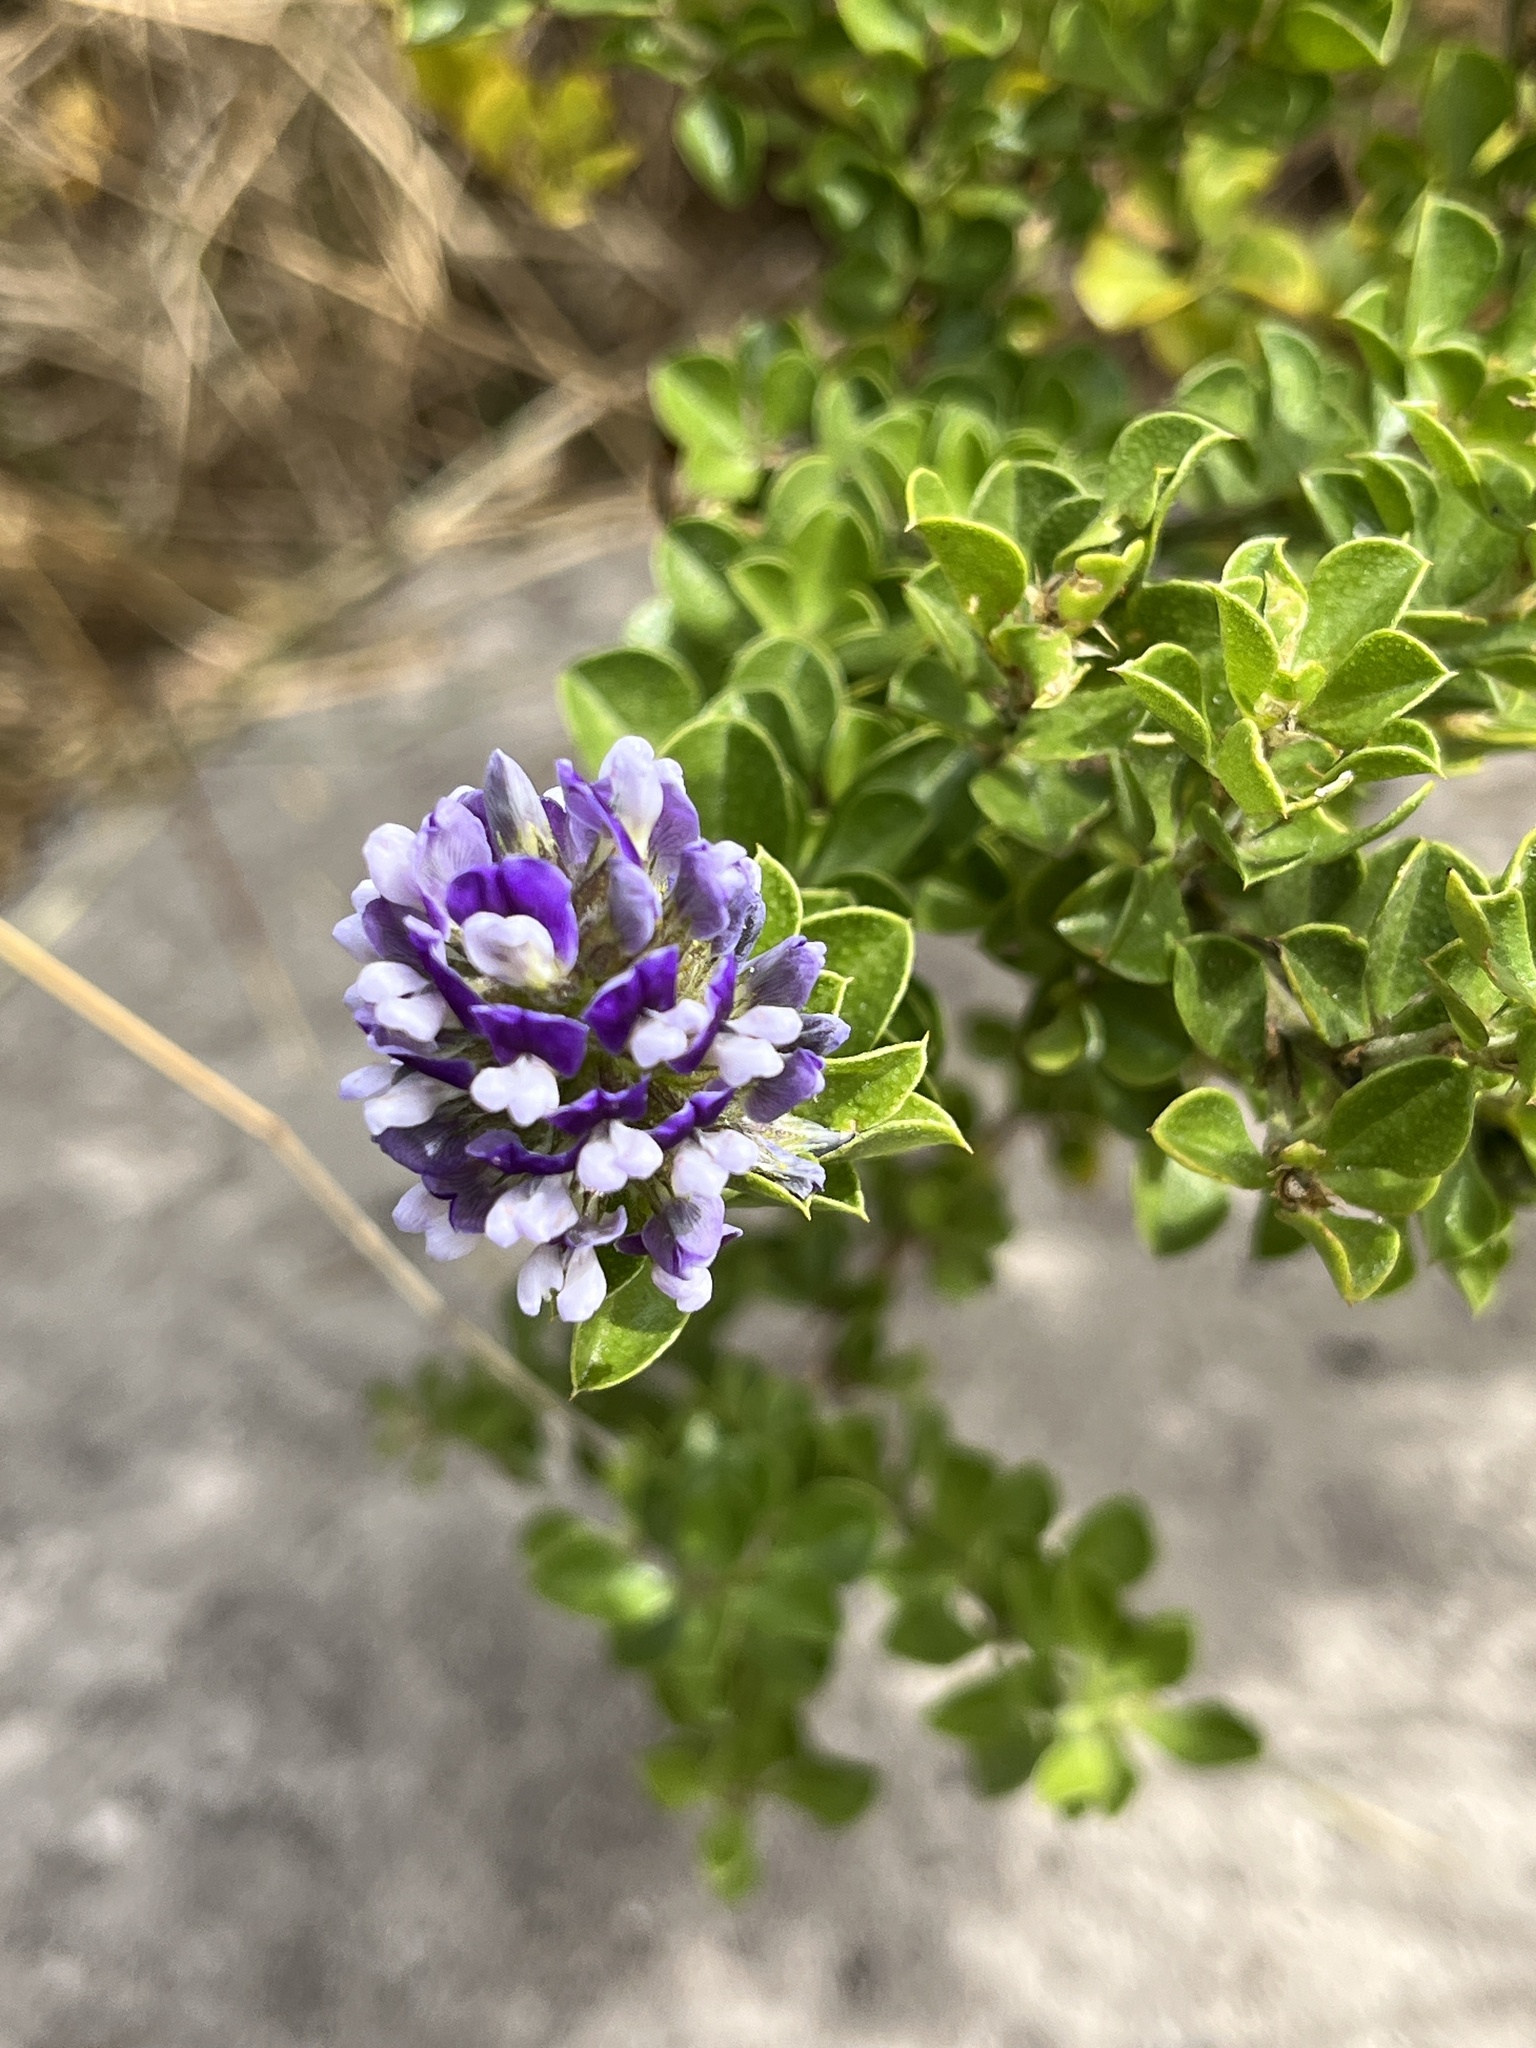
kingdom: Plantae
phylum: Tracheophyta
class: Magnoliopsida
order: Fabales
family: Fabaceae
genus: Psoralea
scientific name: Psoralea bracteolata
